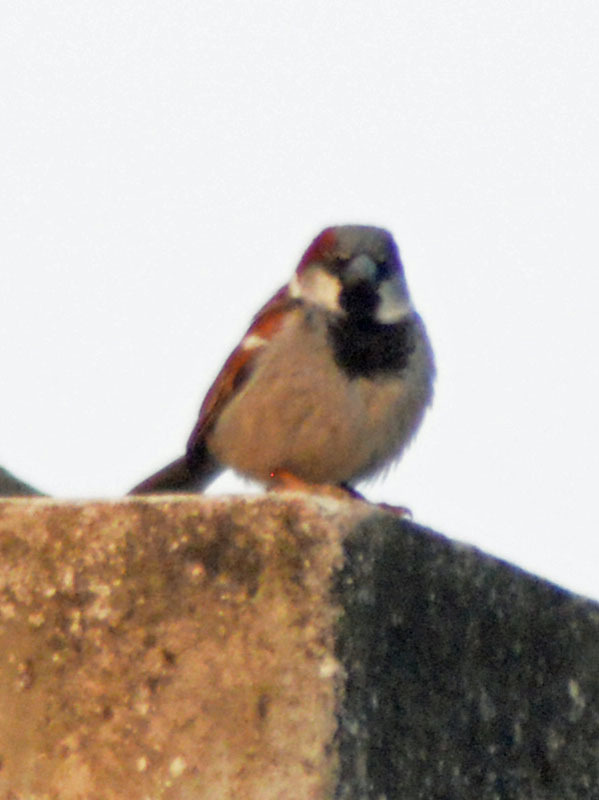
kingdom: Animalia
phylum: Chordata
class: Aves
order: Passeriformes
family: Passeridae
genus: Passer
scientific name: Passer domesticus
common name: House sparrow
